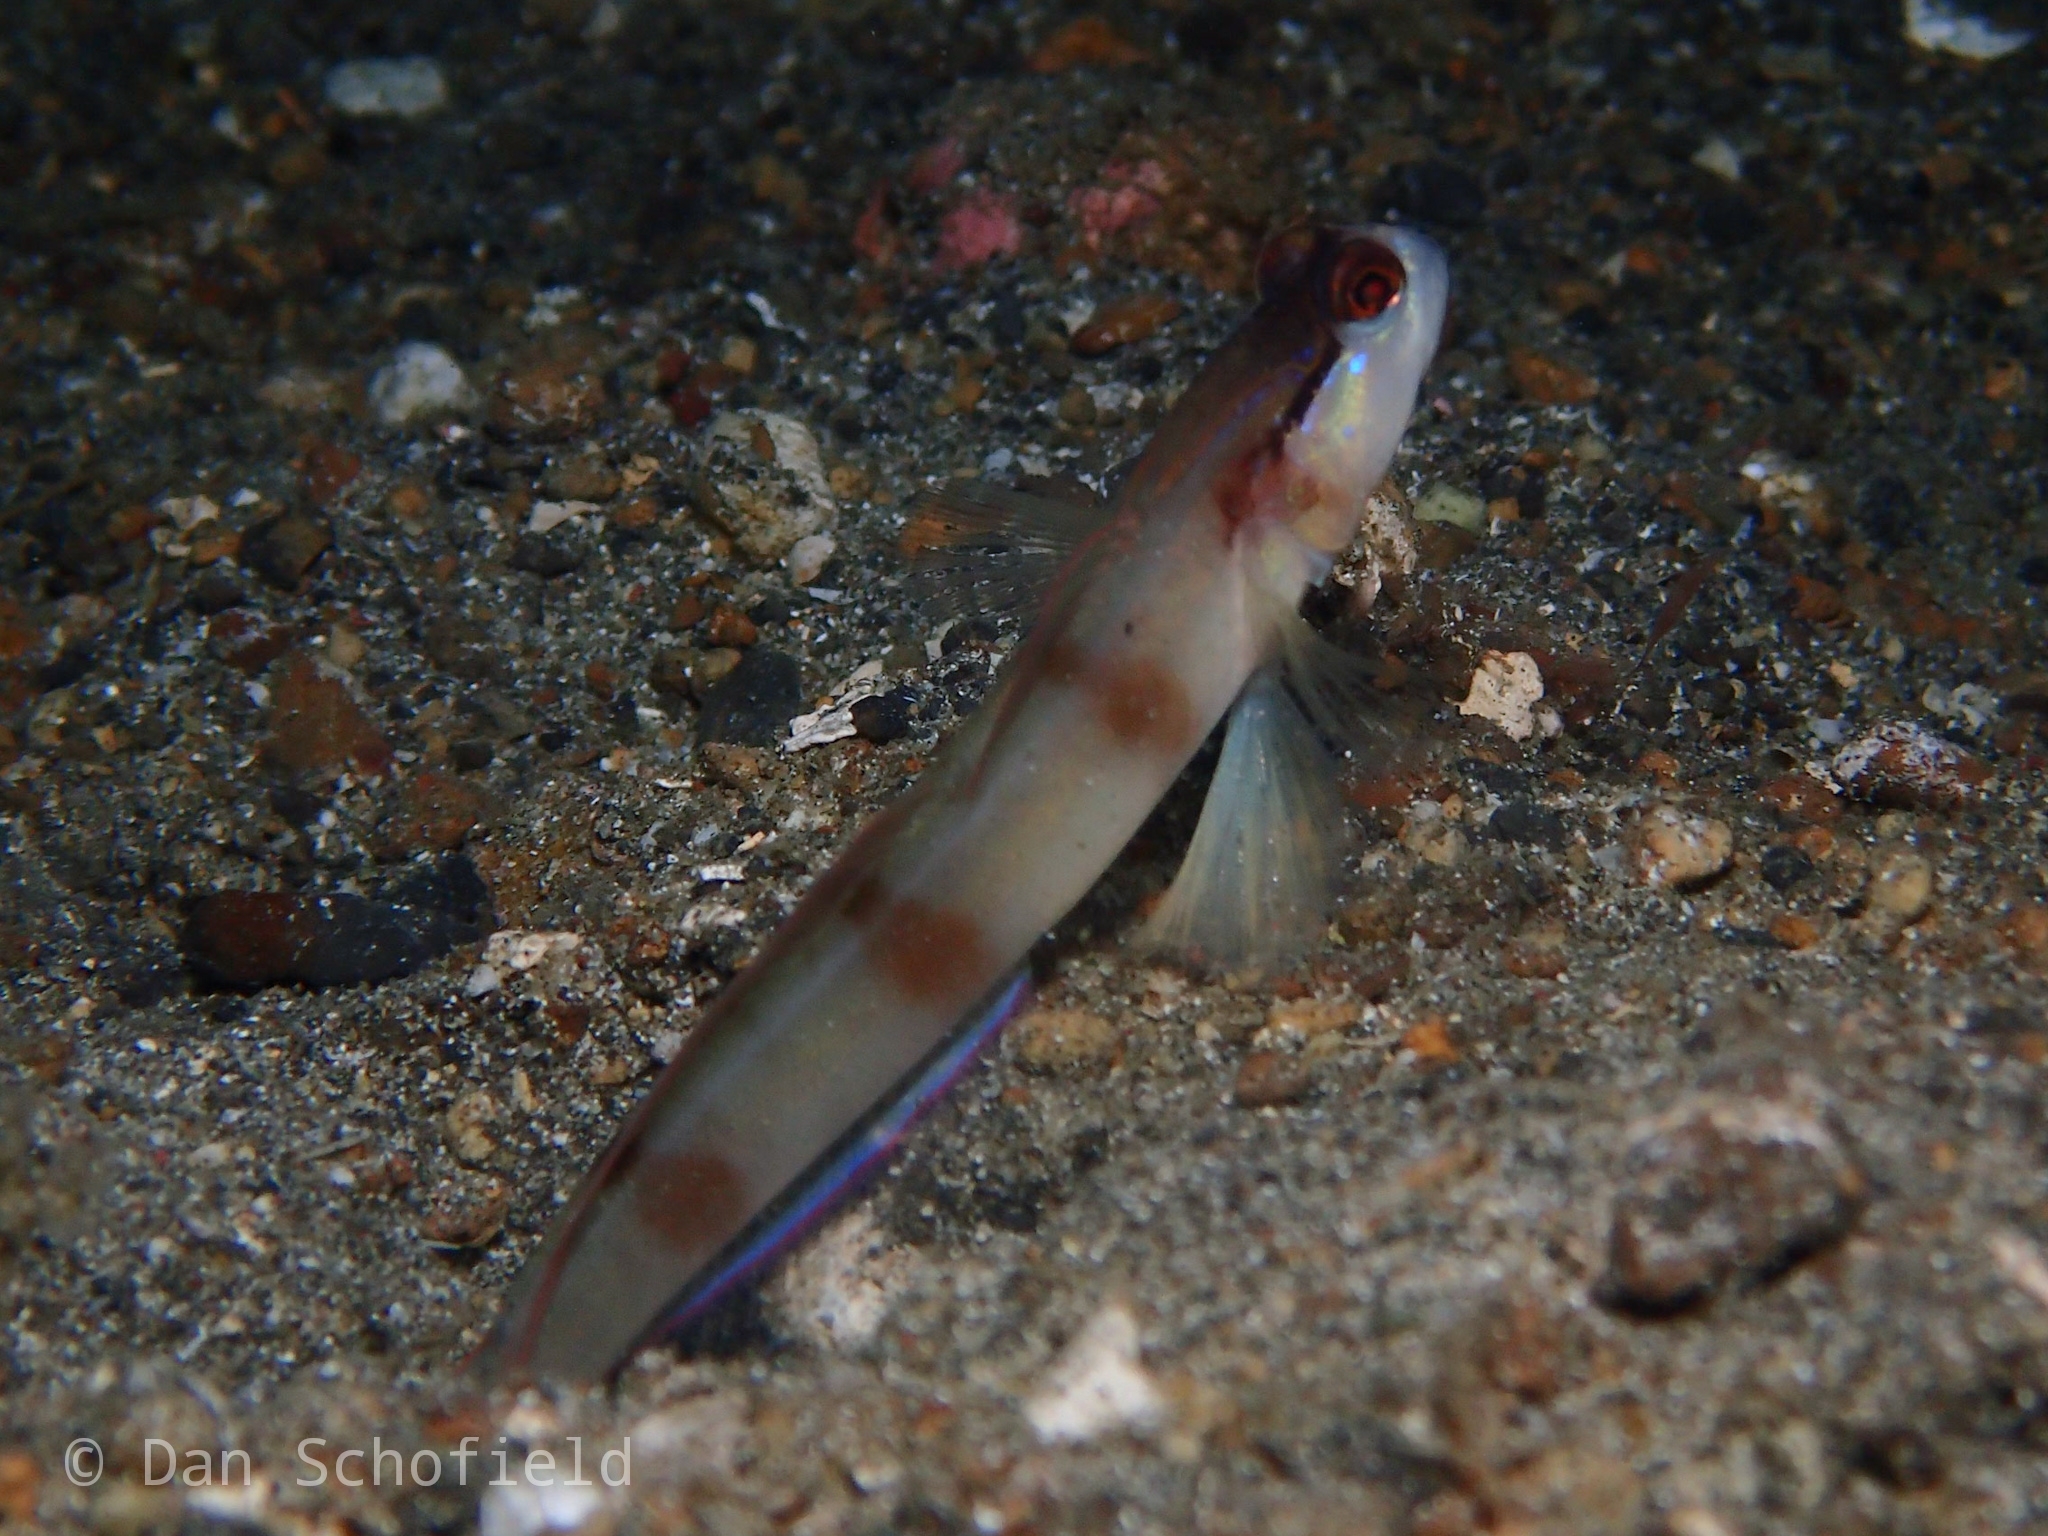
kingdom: Animalia
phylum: Chordata
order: Perciformes
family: Gobiidae
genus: Amblyeleotris
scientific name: Amblyeleotris gymnocephala
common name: Masked shrimpgoby
